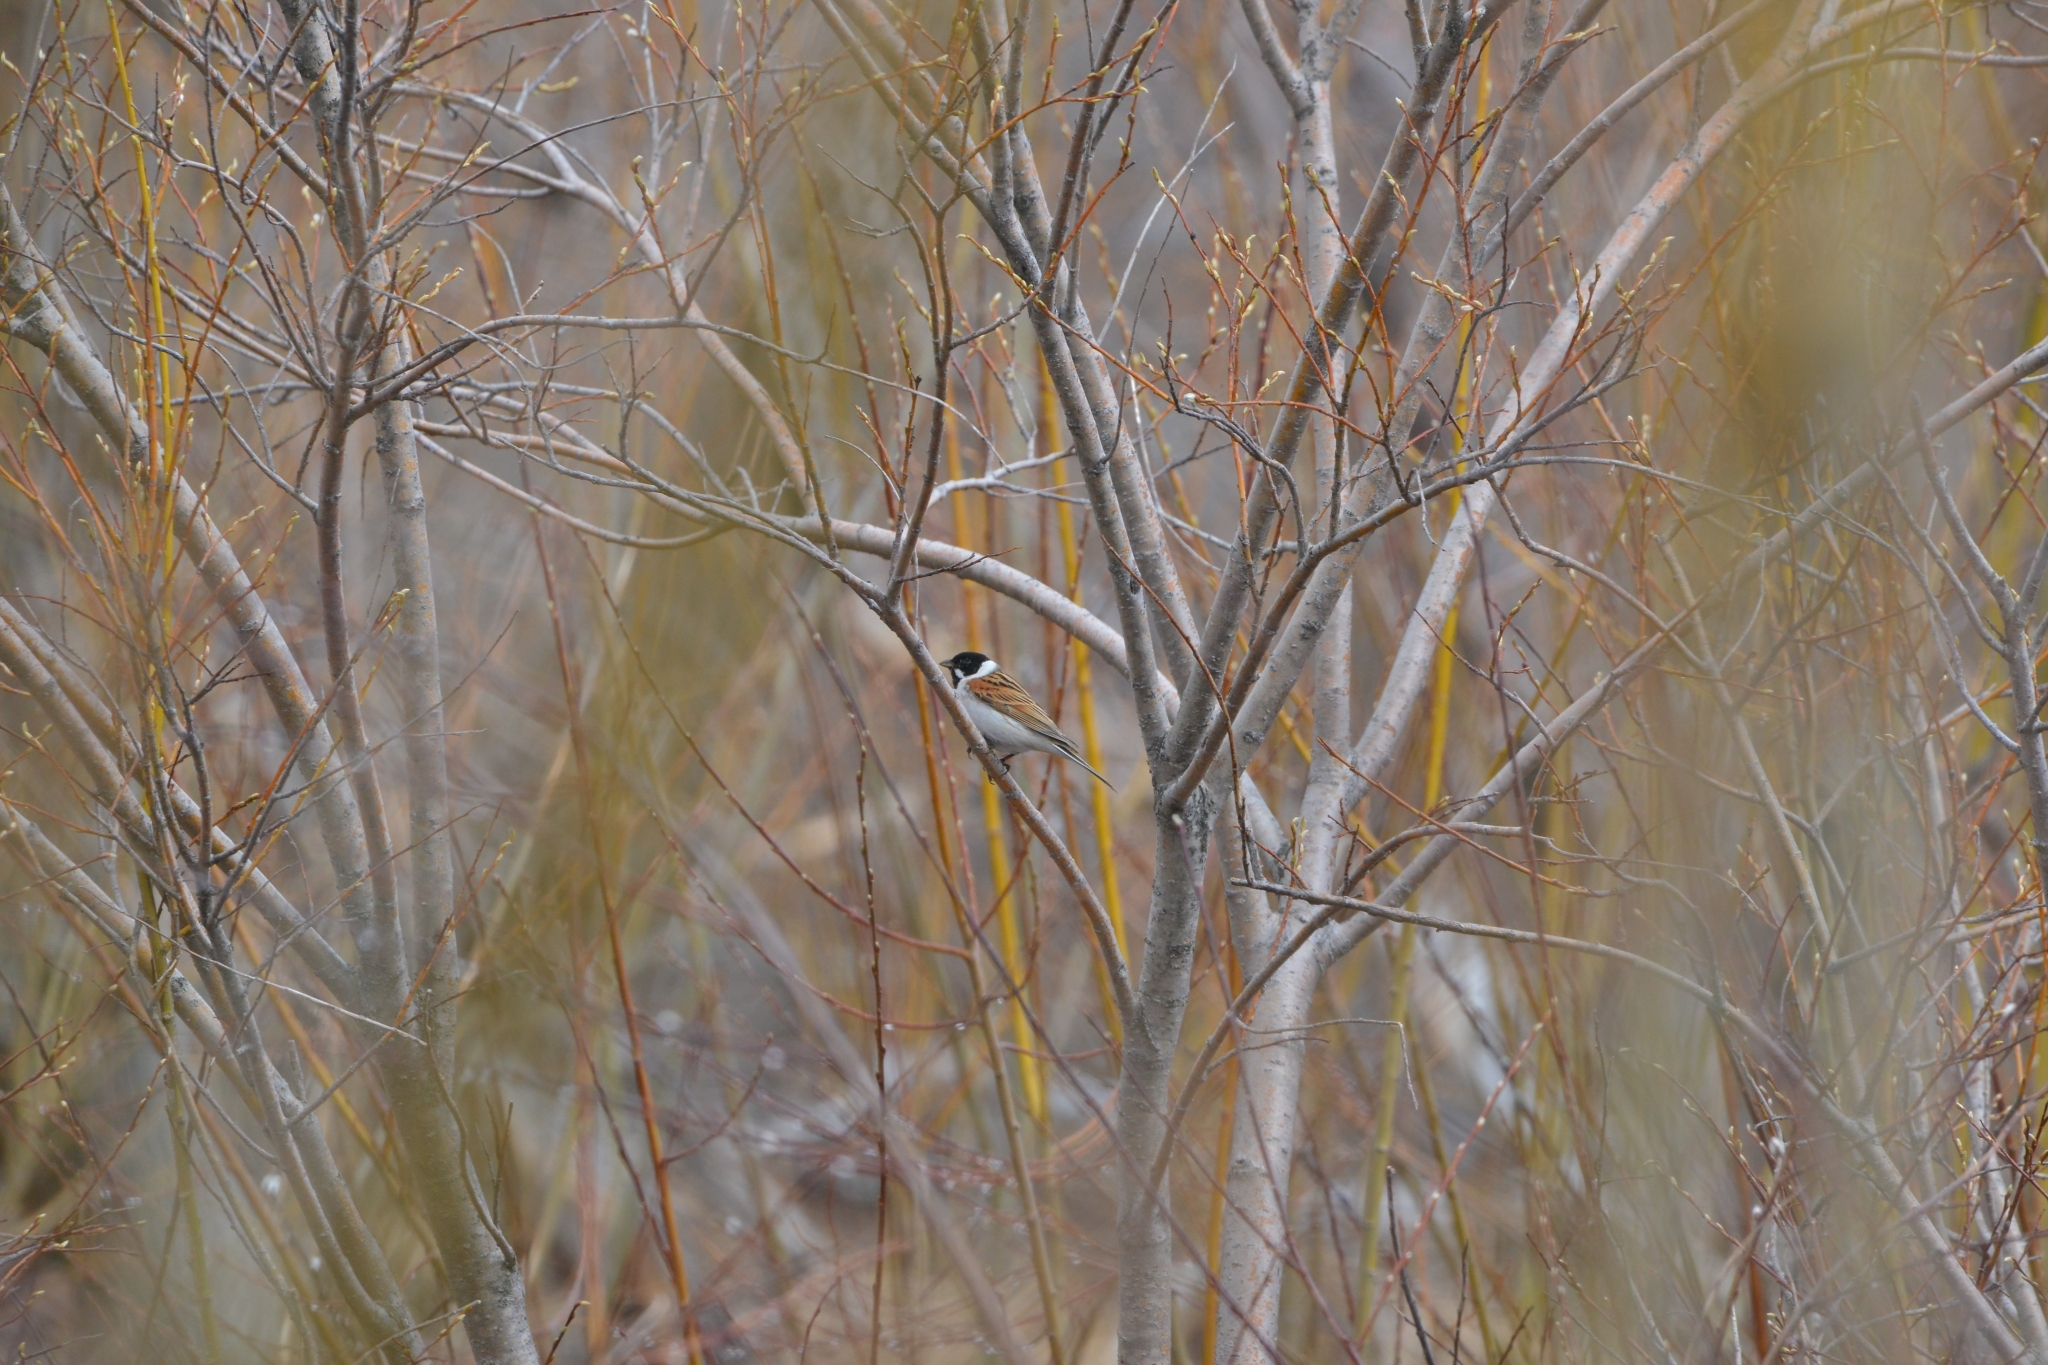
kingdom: Animalia
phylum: Chordata
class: Aves
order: Passeriformes
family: Emberizidae
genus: Emberiza
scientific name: Emberiza schoeniclus
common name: Reed bunting
